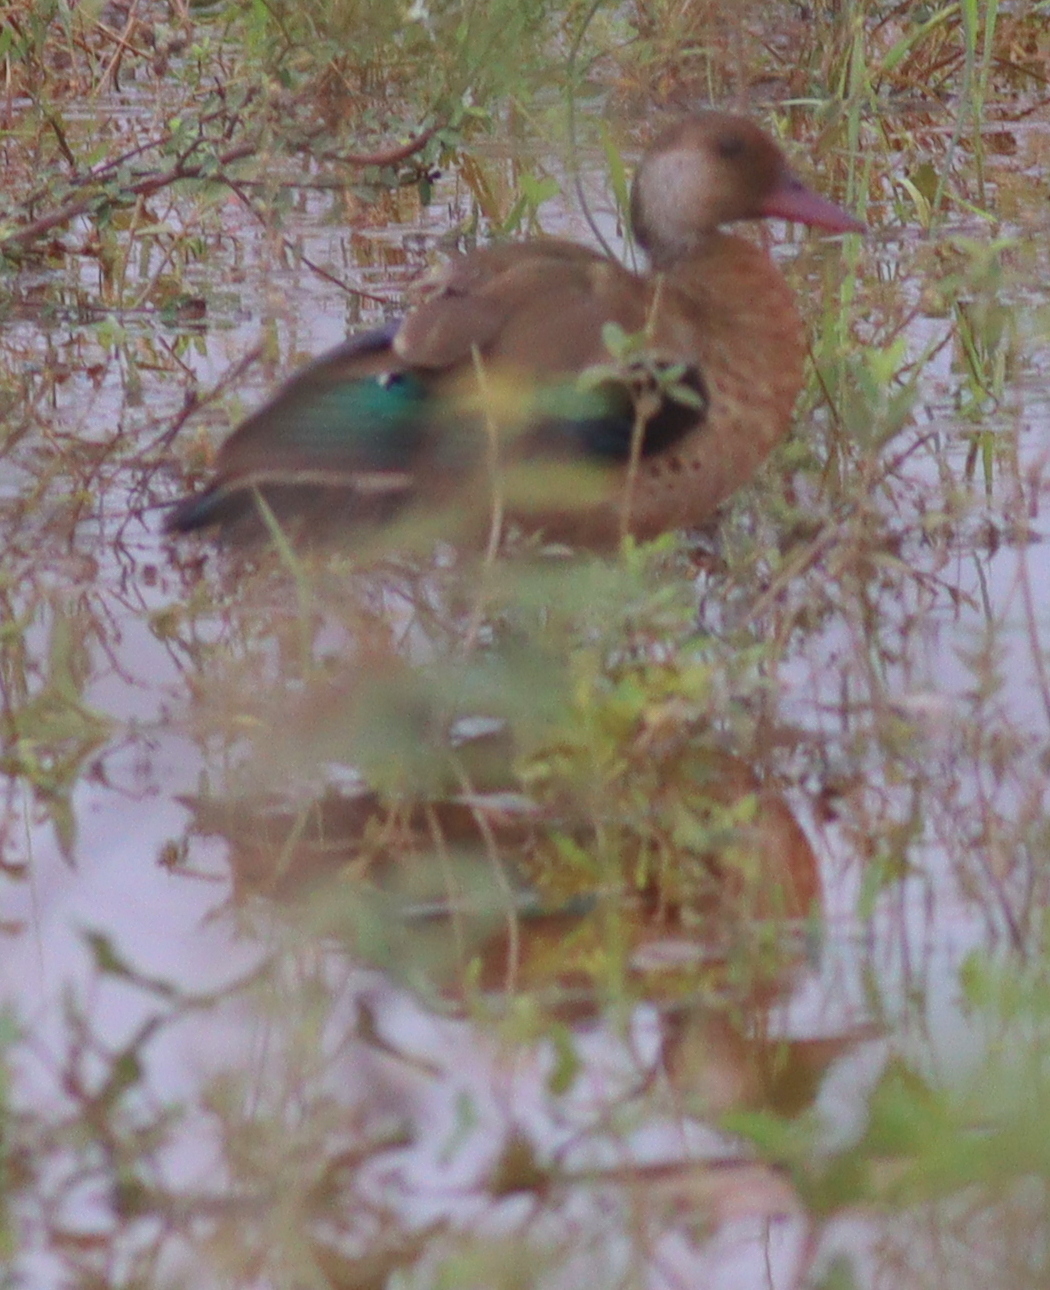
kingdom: Animalia
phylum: Chordata
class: Aves
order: Anseriformes
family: Anatidae
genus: Amazonetta
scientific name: Amazonetta brasiliensis
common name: Brazilian teal
